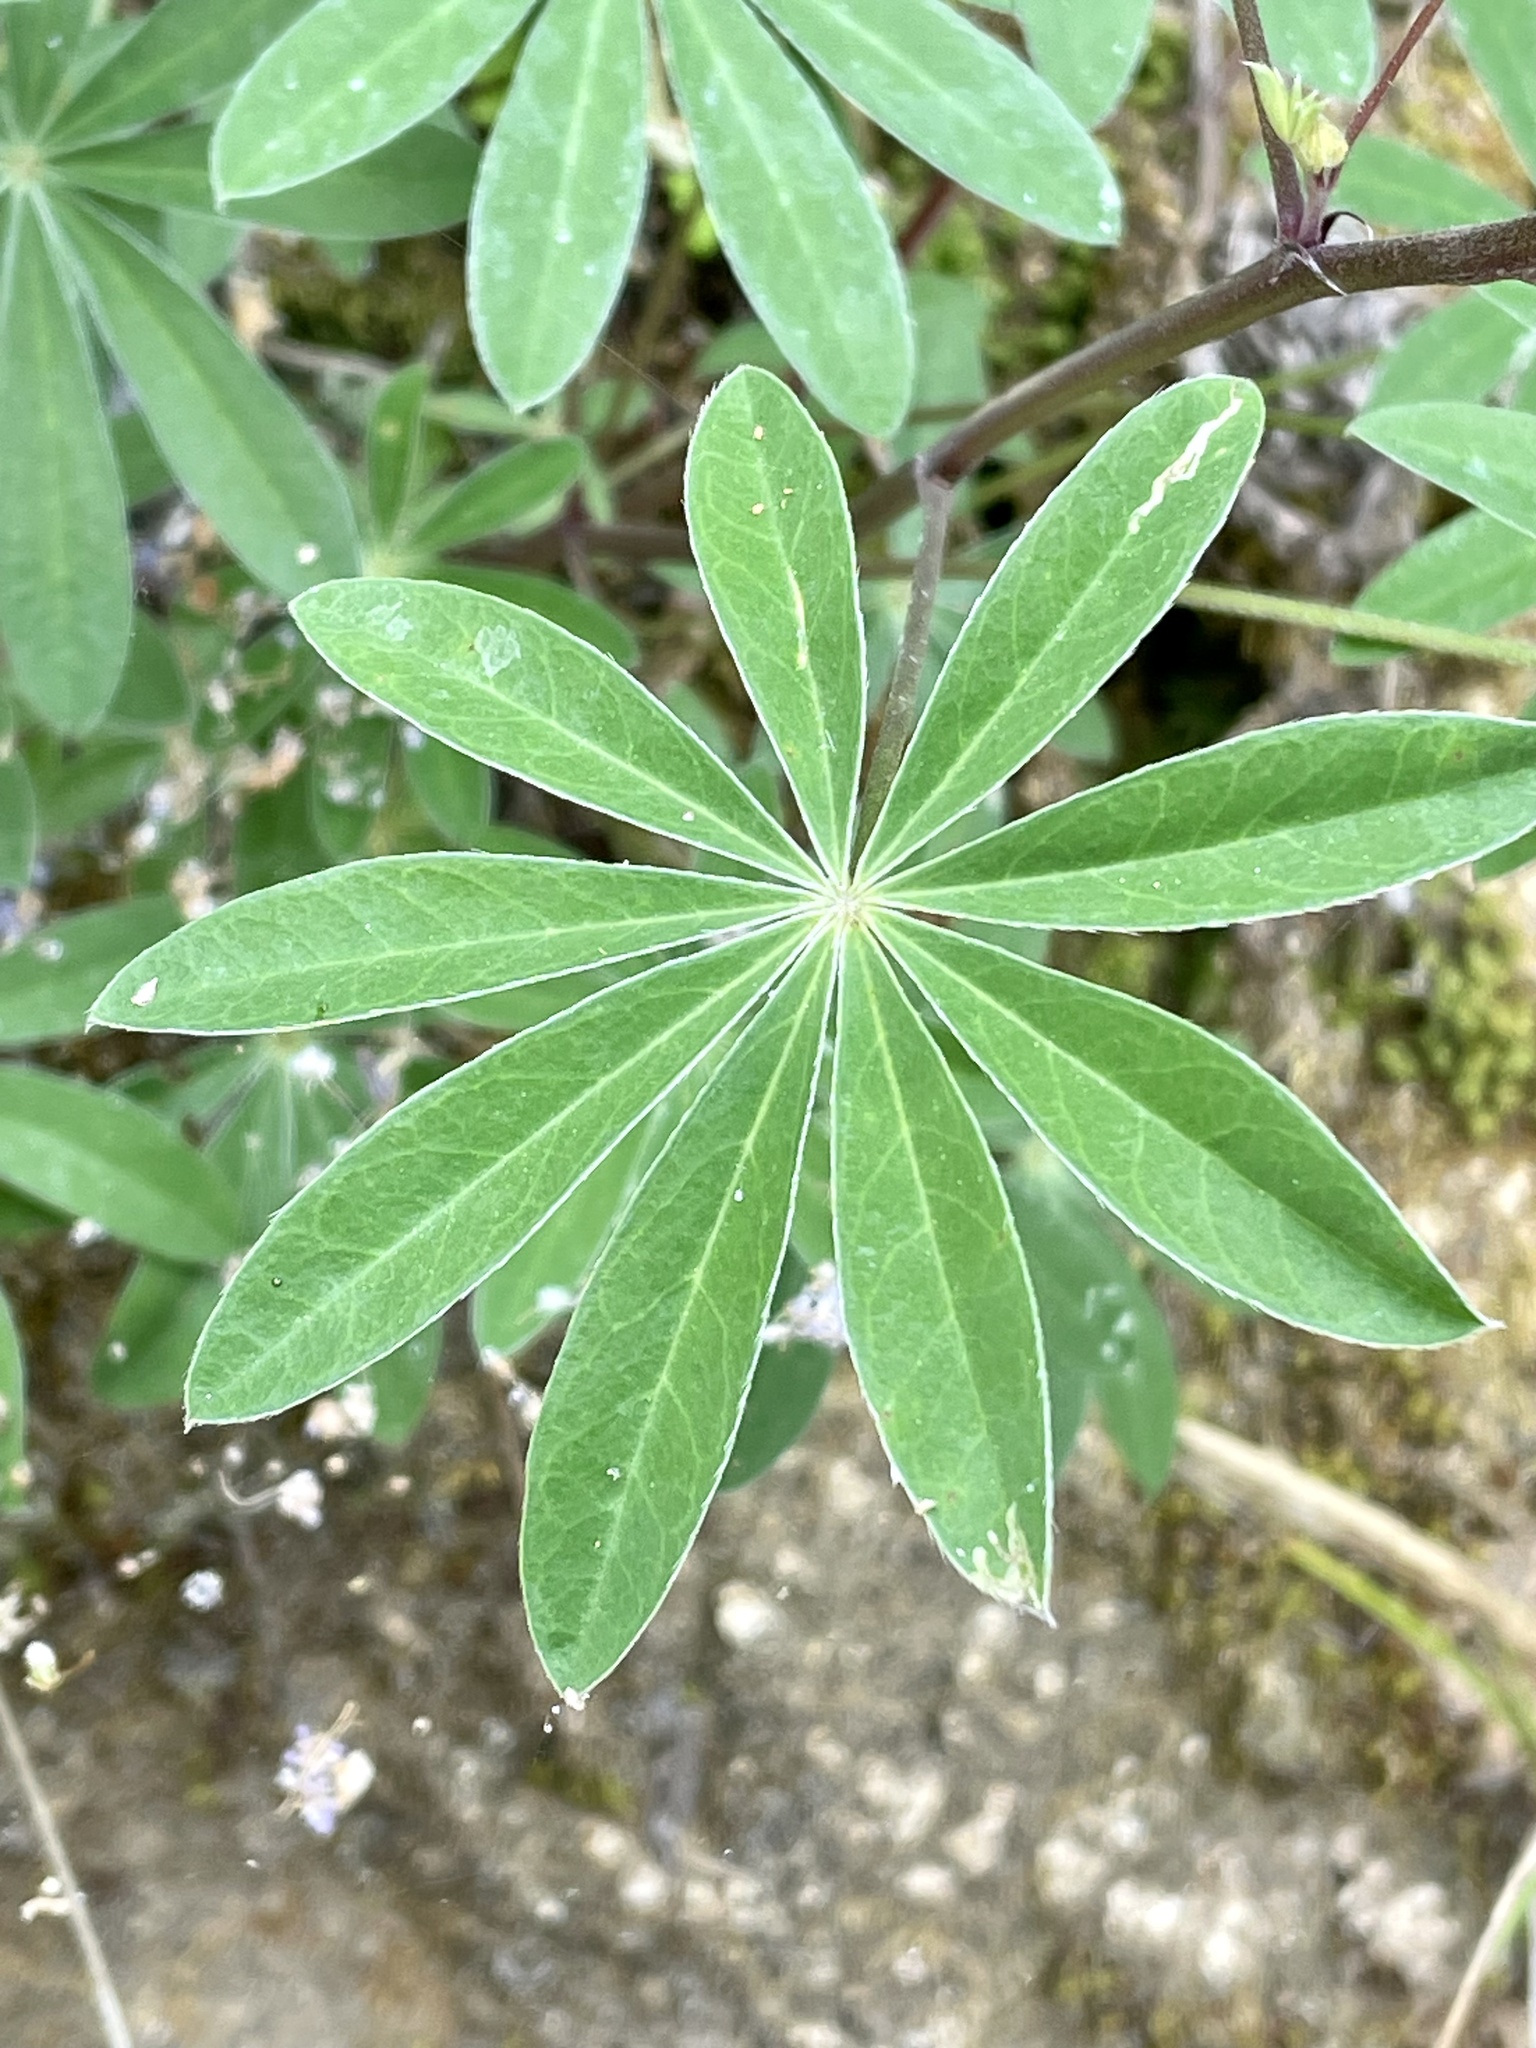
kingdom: Plantae
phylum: Tracheophyta
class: Magnoliopsida
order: Fabales
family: Fabaceae
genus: Lupinus
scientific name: Lupinus latifolius
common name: Broad-leaved lupine
